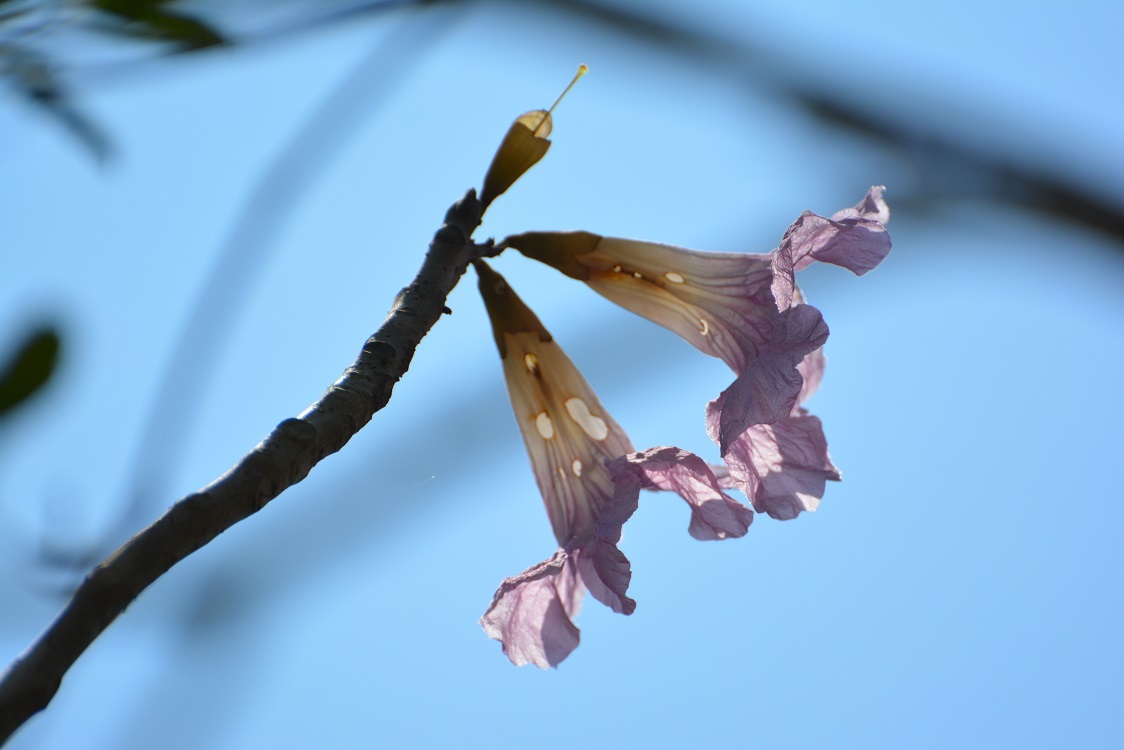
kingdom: Plantae
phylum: Tracheophyta
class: Magnoliopsida
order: Lamiales
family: Bignoniaceae
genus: Tabebuia
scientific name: Tabebuia rosea
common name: Pink poui
